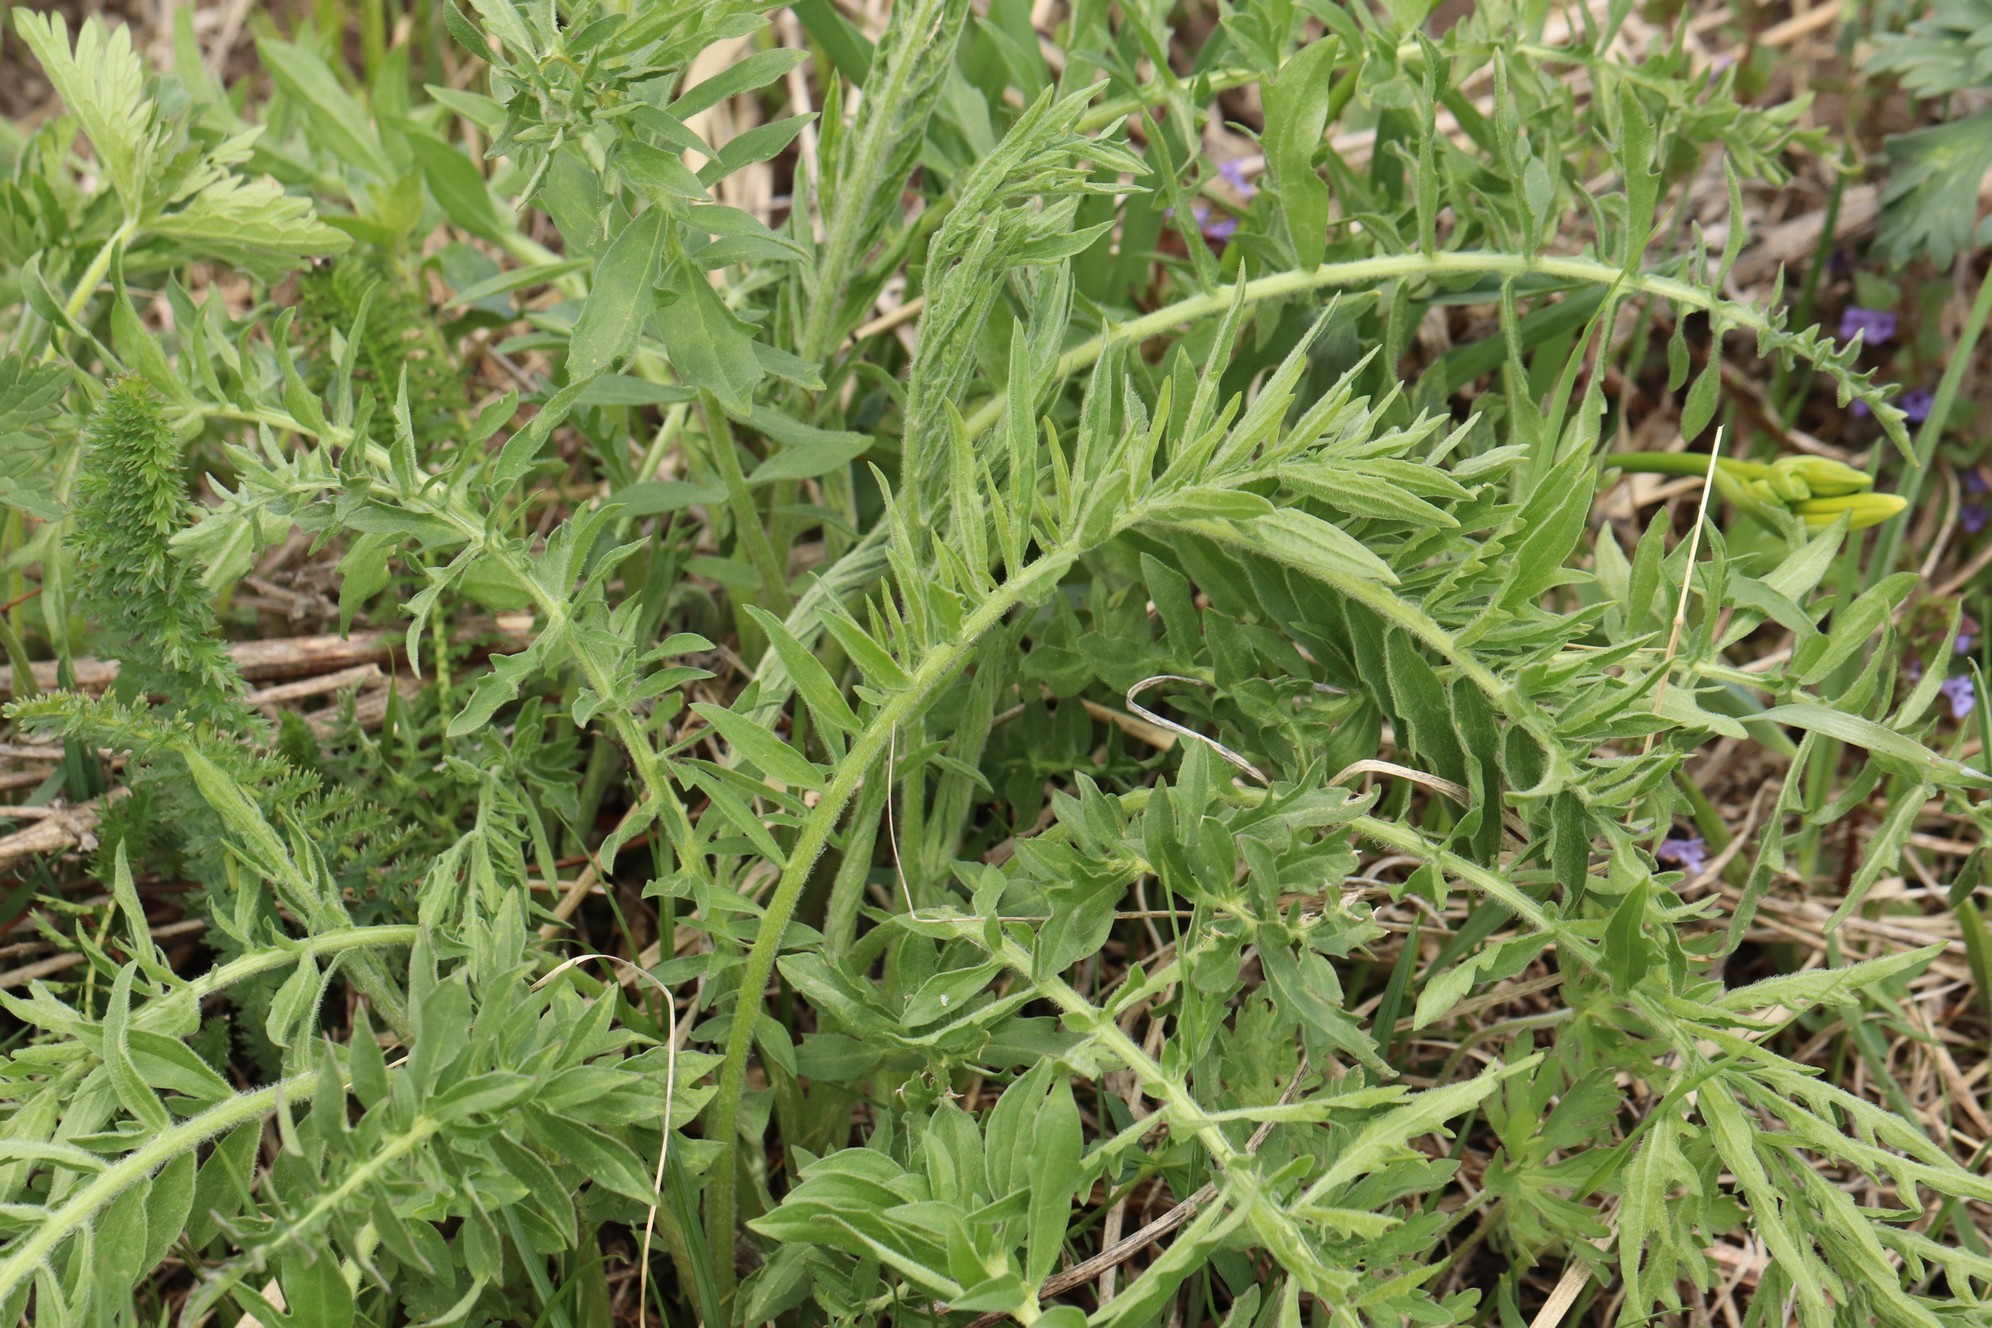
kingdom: Plantae
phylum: Tracheophyta
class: Magnoliopsida
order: Asterales
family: Asteraceae
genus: Centaurea
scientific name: Centaurea scabiosa
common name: Greater knapweed
